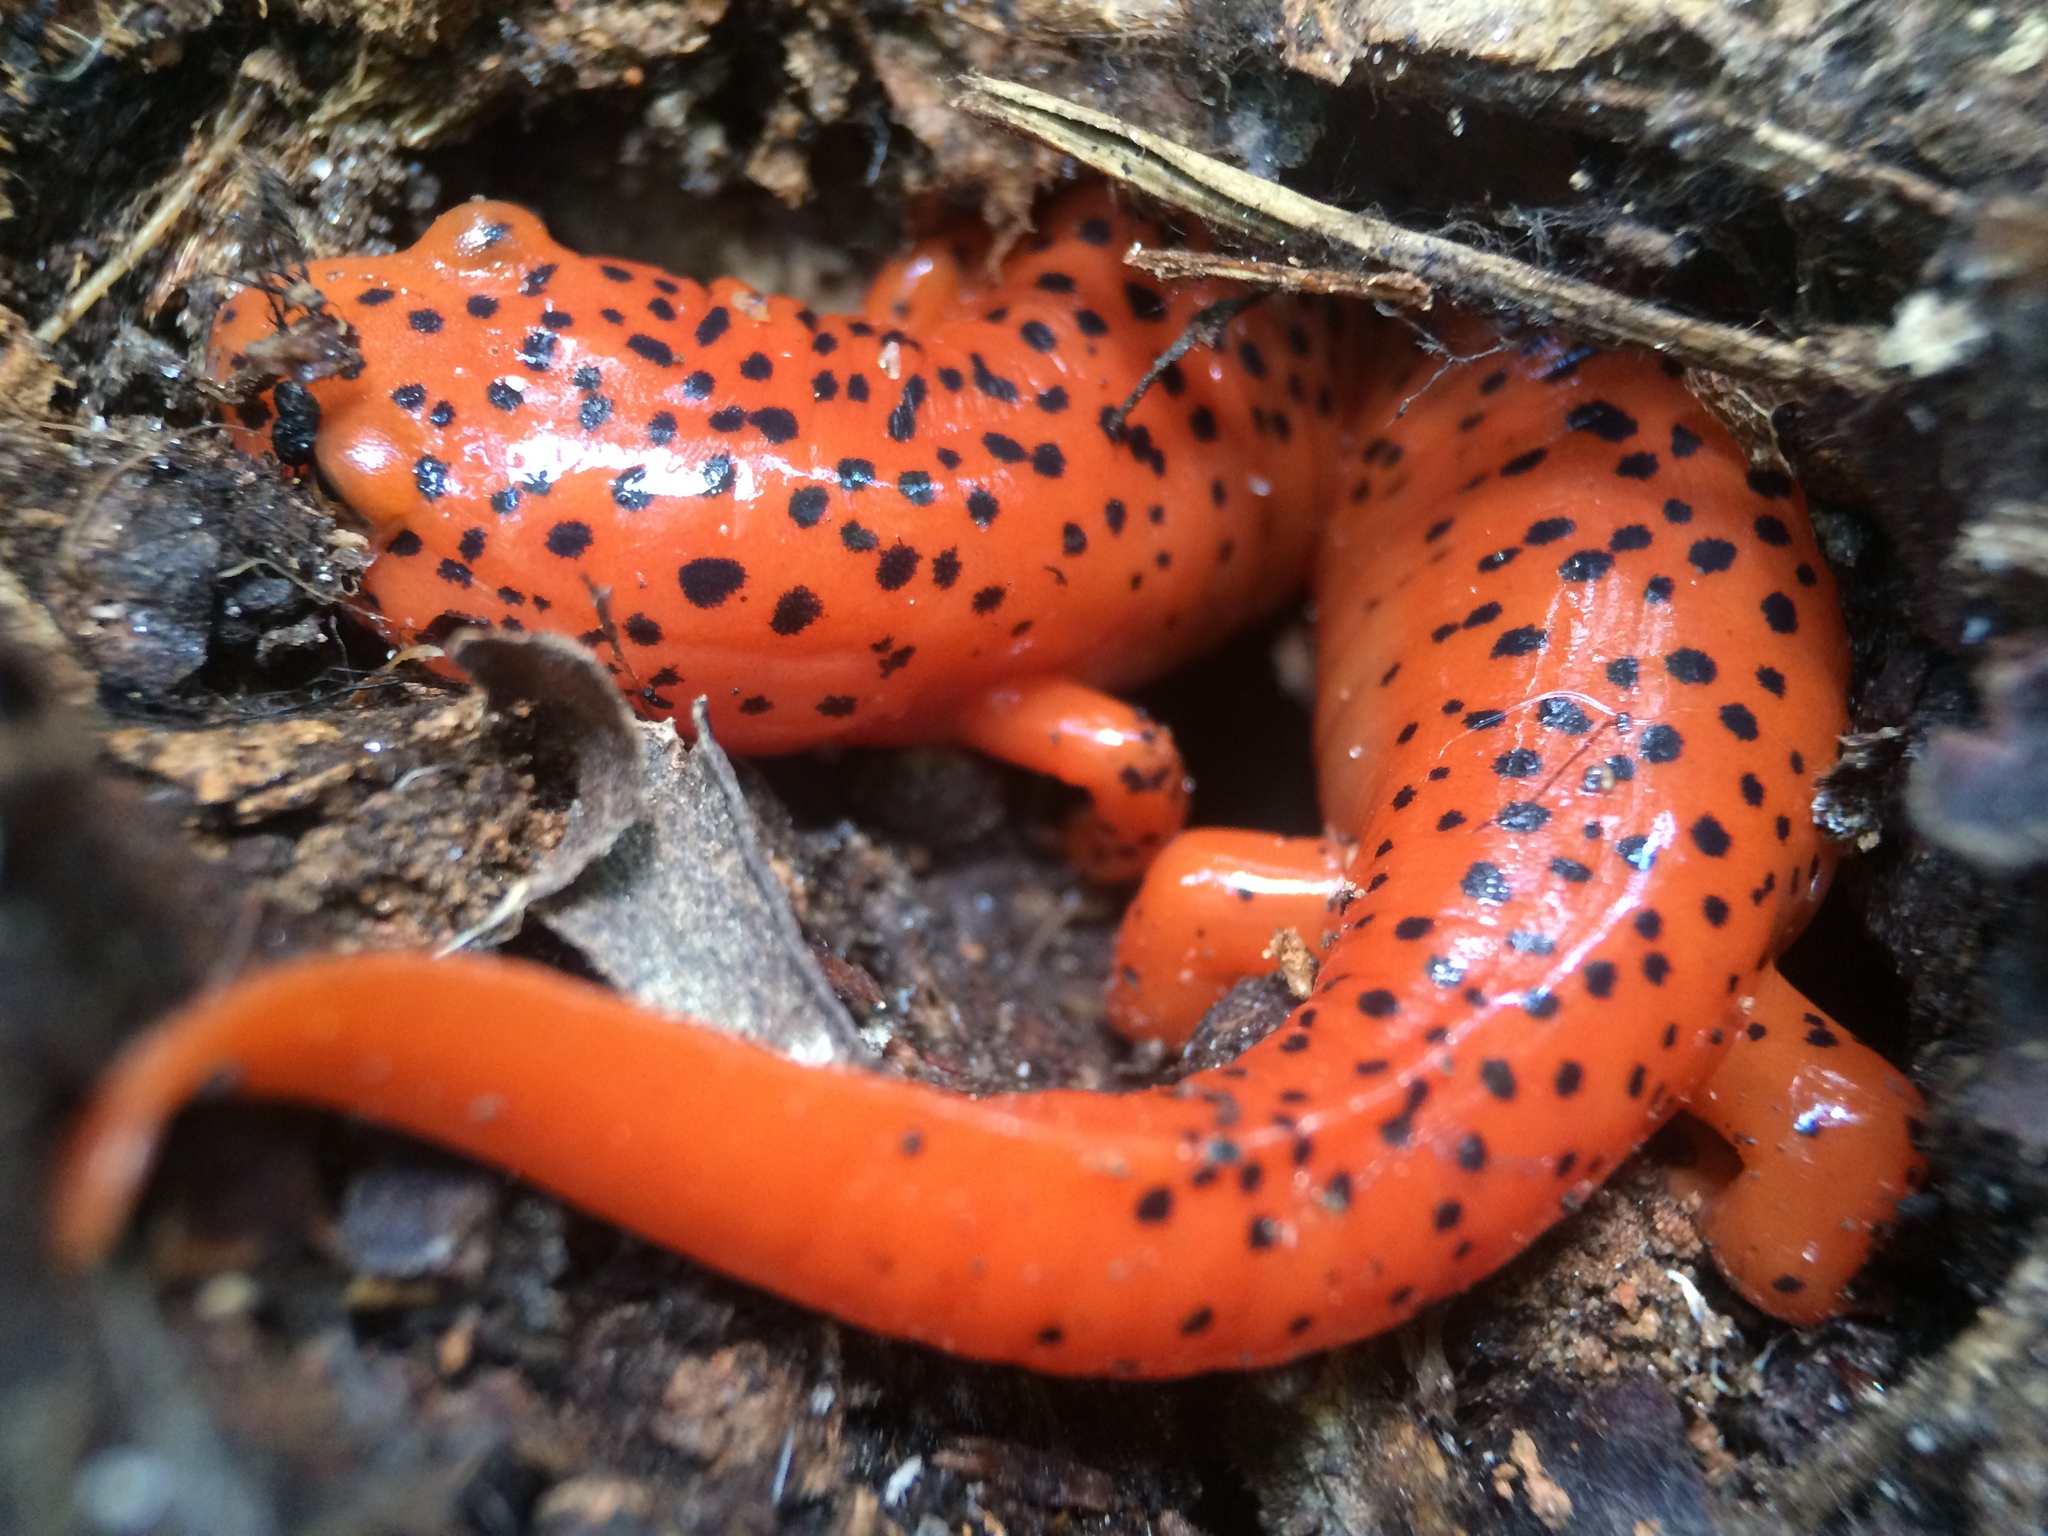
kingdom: Animalia
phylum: Chordata
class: Amphibia
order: Caudata
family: Plethodontidae
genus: Pseudotriton
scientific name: Pseudotriton ruber
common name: Red salamander
